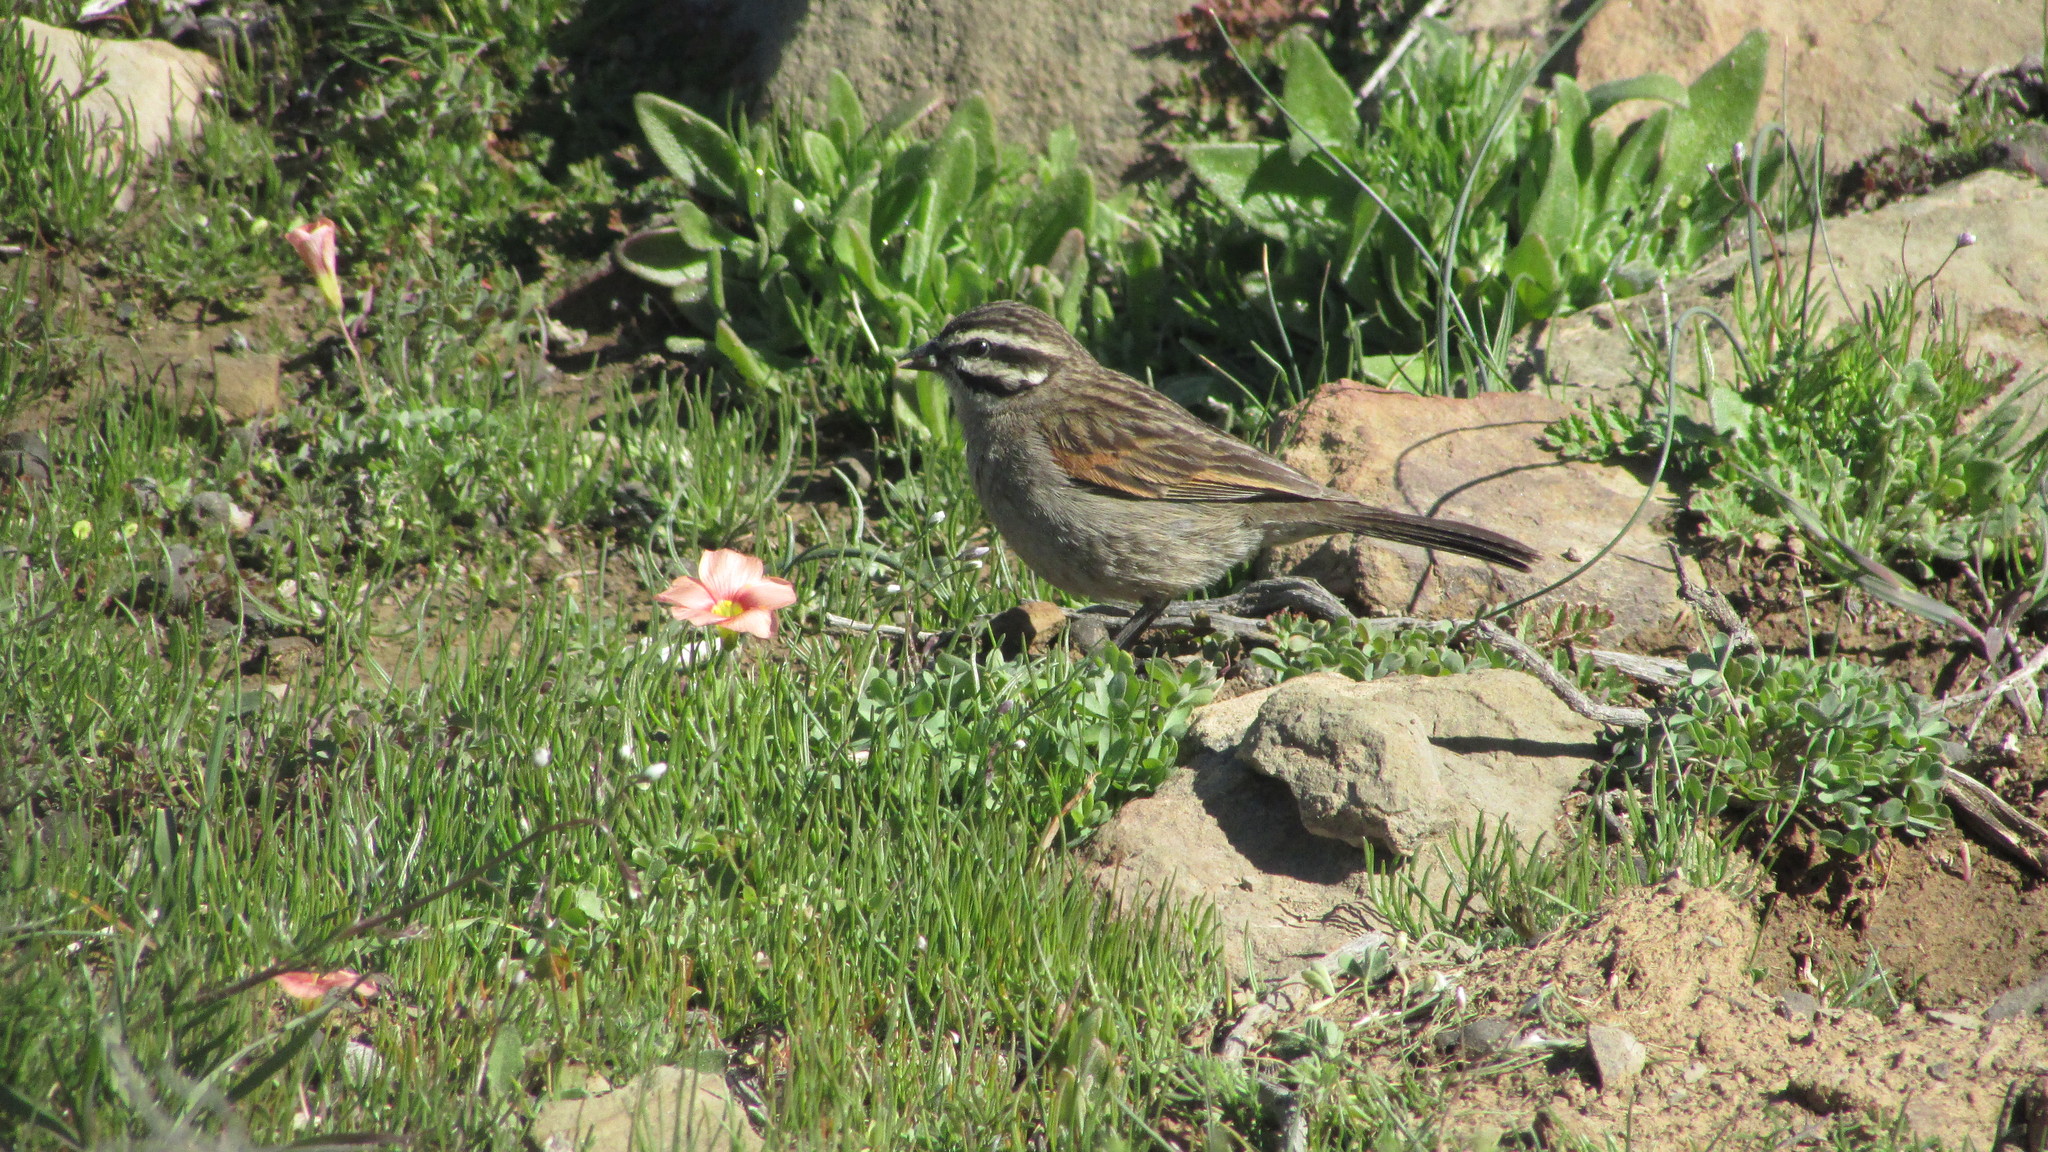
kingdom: Animalia
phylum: Chordata
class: Aves
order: Passeriformes
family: Emberizidae
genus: Emberiza
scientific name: Emberiza capensis
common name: Cape bunting
